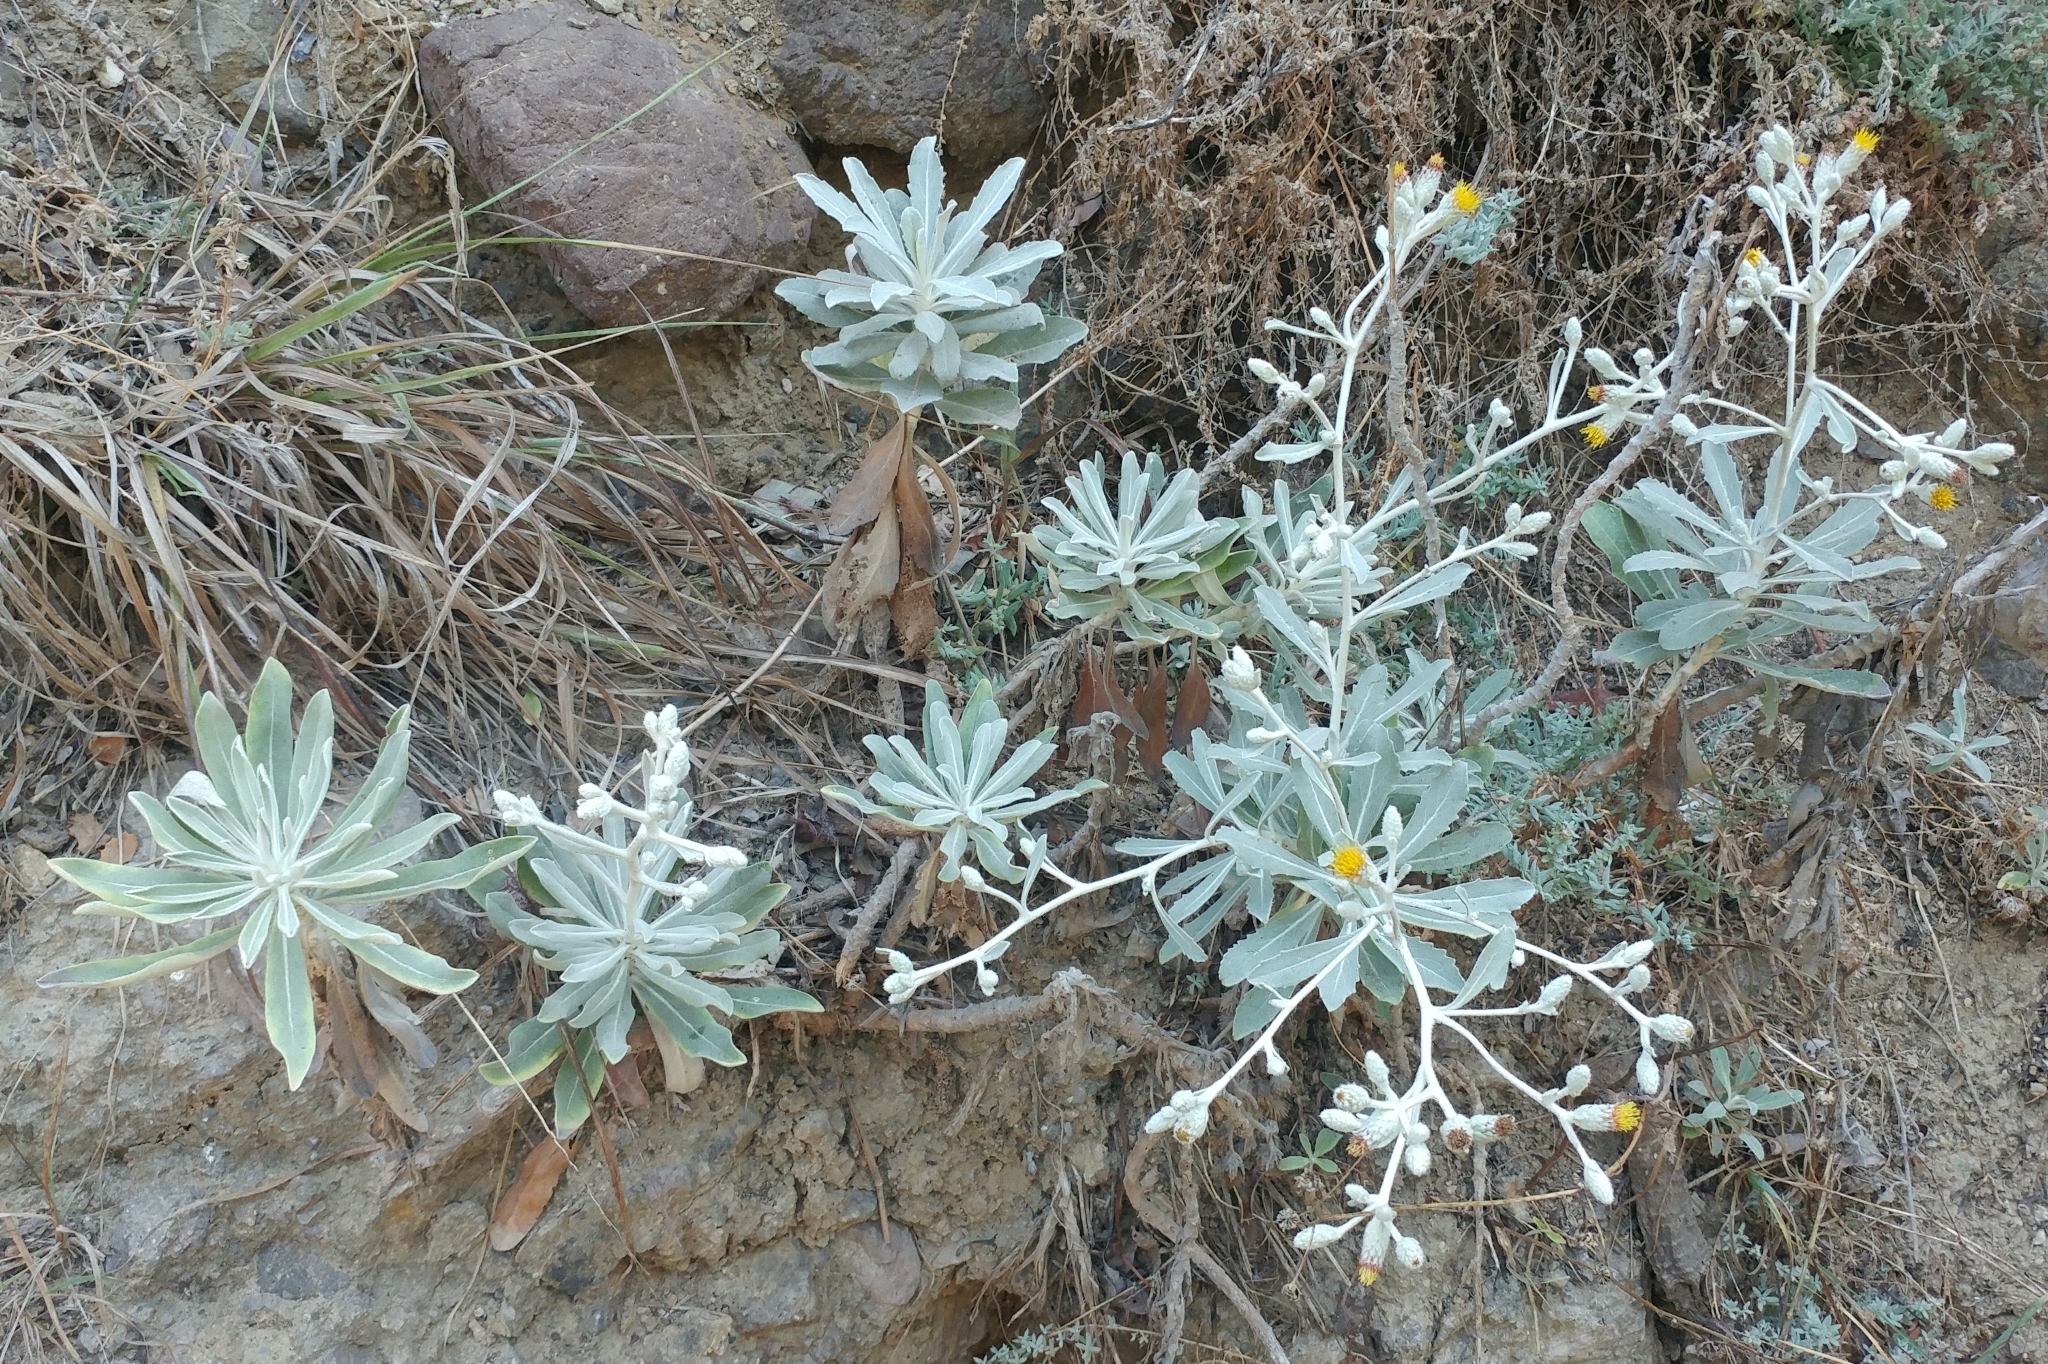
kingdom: Plantae
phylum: Tracheophyta
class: Magnoliopsida
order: Asterales
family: Asteraceae
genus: Hazardia
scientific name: Hazardia detonsa
